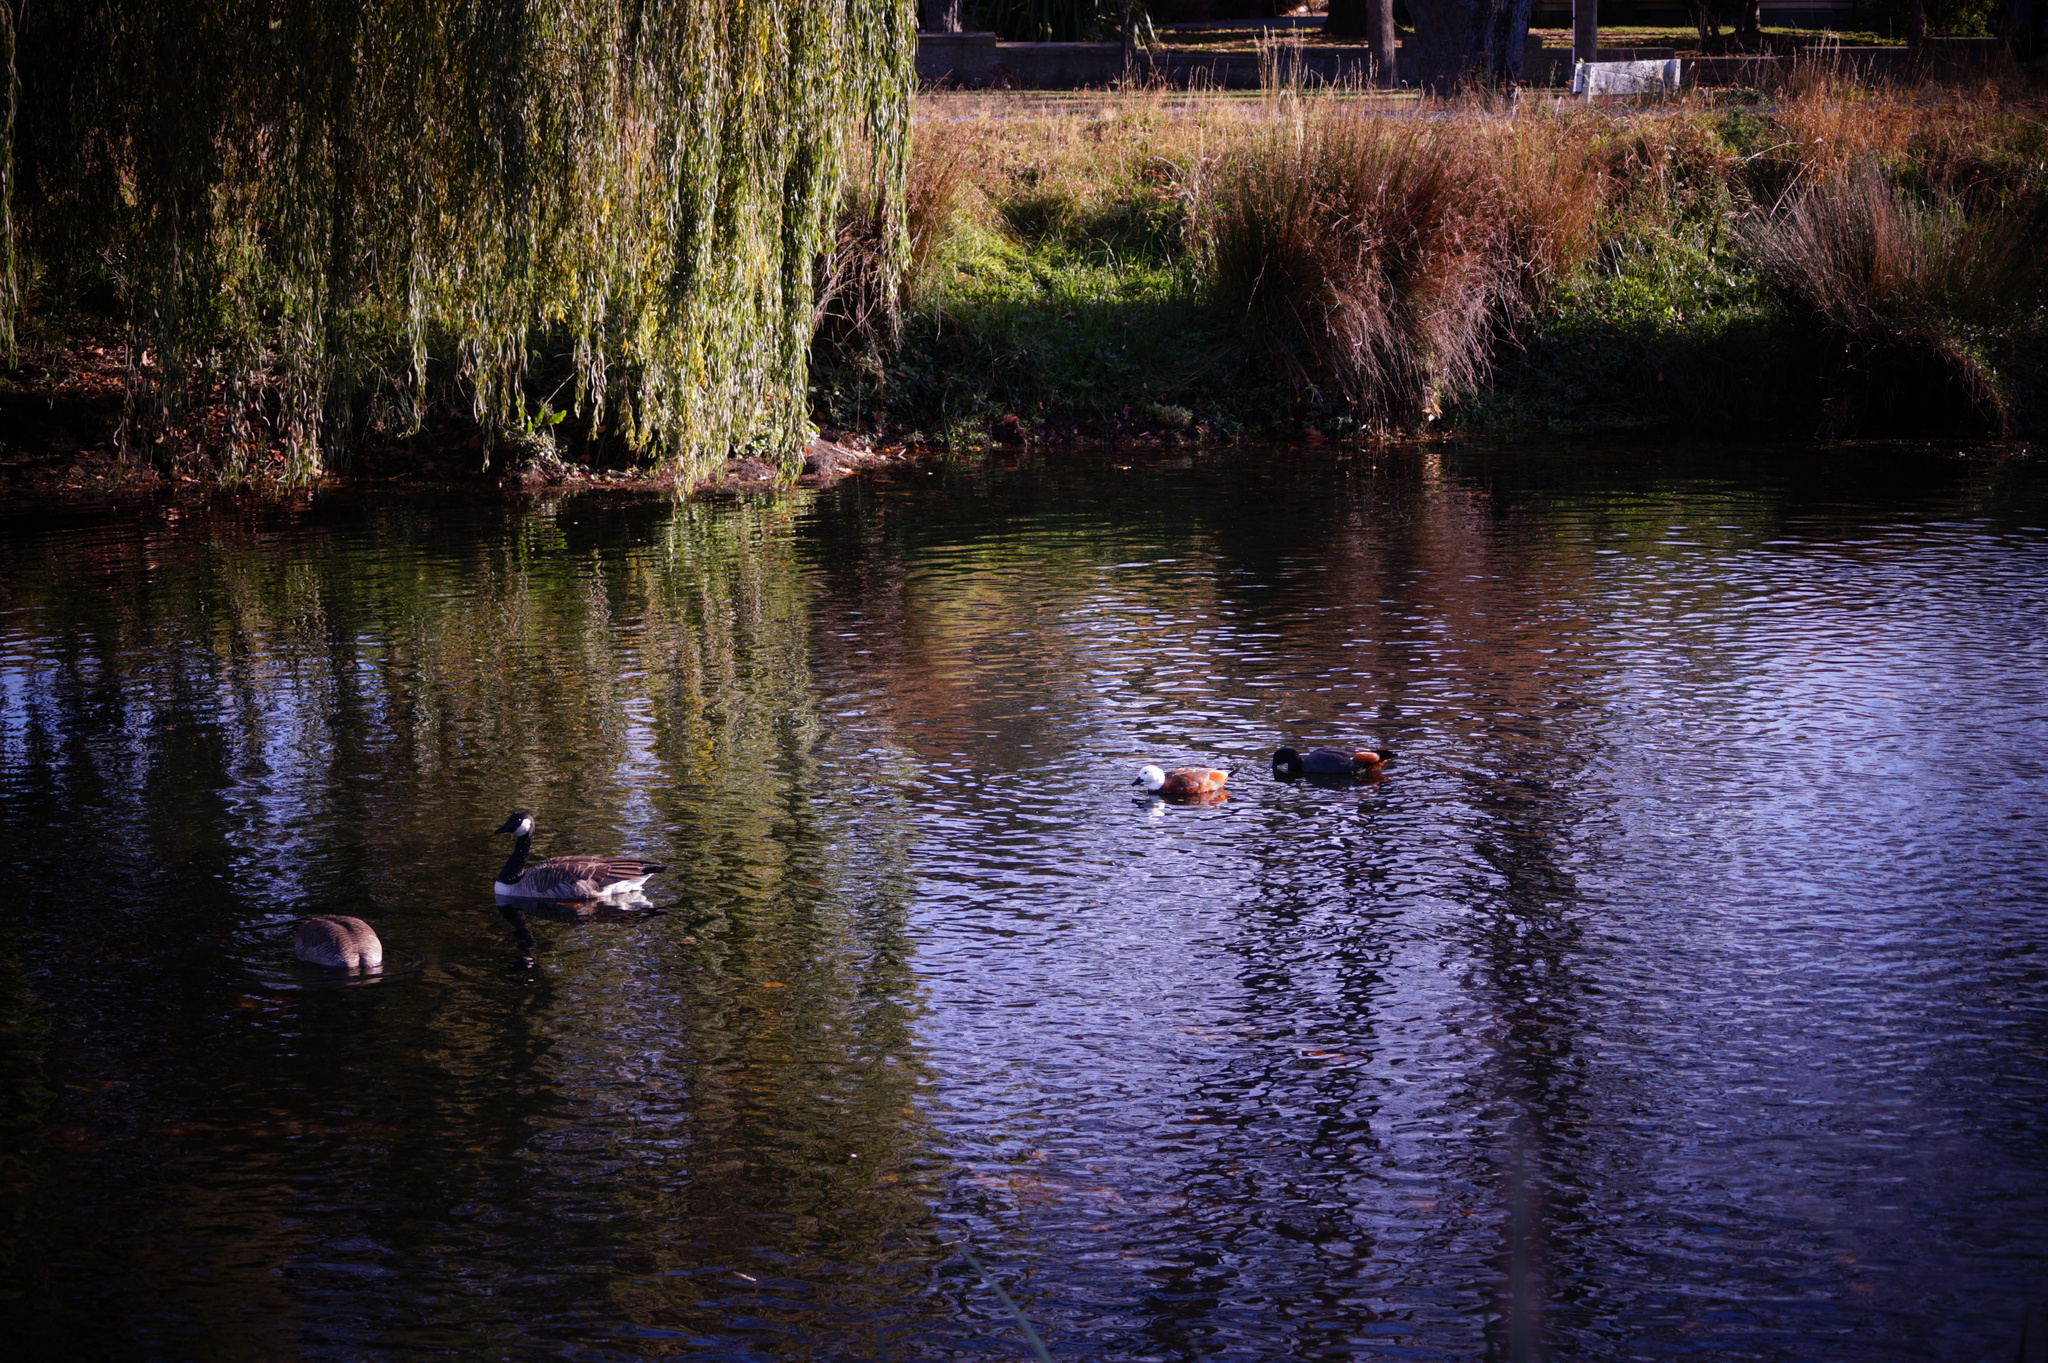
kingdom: Animalia
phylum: Chordata
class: Aves
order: Anseriformes
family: Anatidae
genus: Tadorna
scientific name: Tadorna variegata
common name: Paradise shelduck
